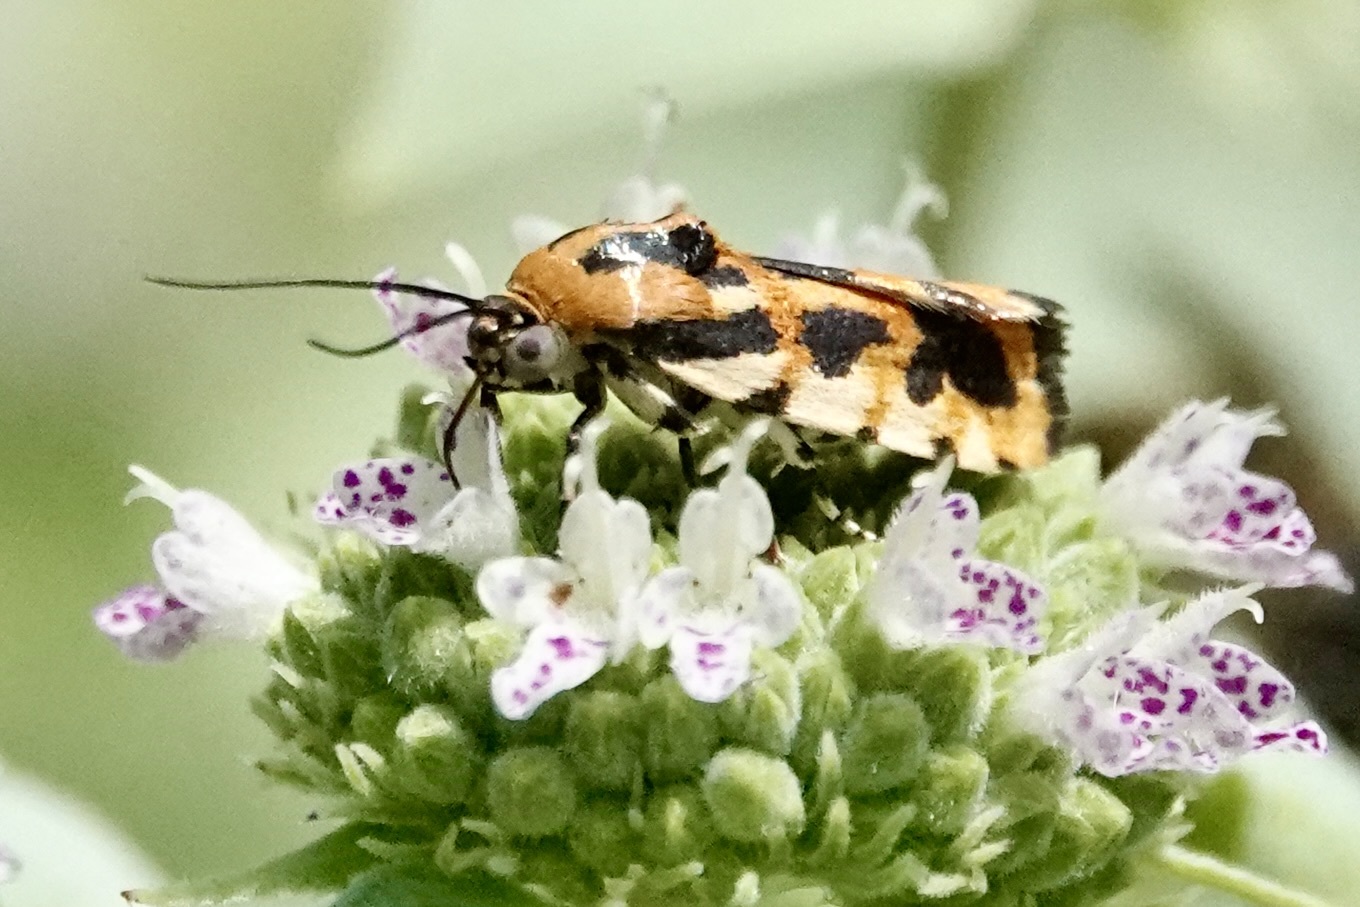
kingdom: Animalia
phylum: Arthropoda
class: Insecta
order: Lepidoptera
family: Noctuidae
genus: Acontia
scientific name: Acontia leo
